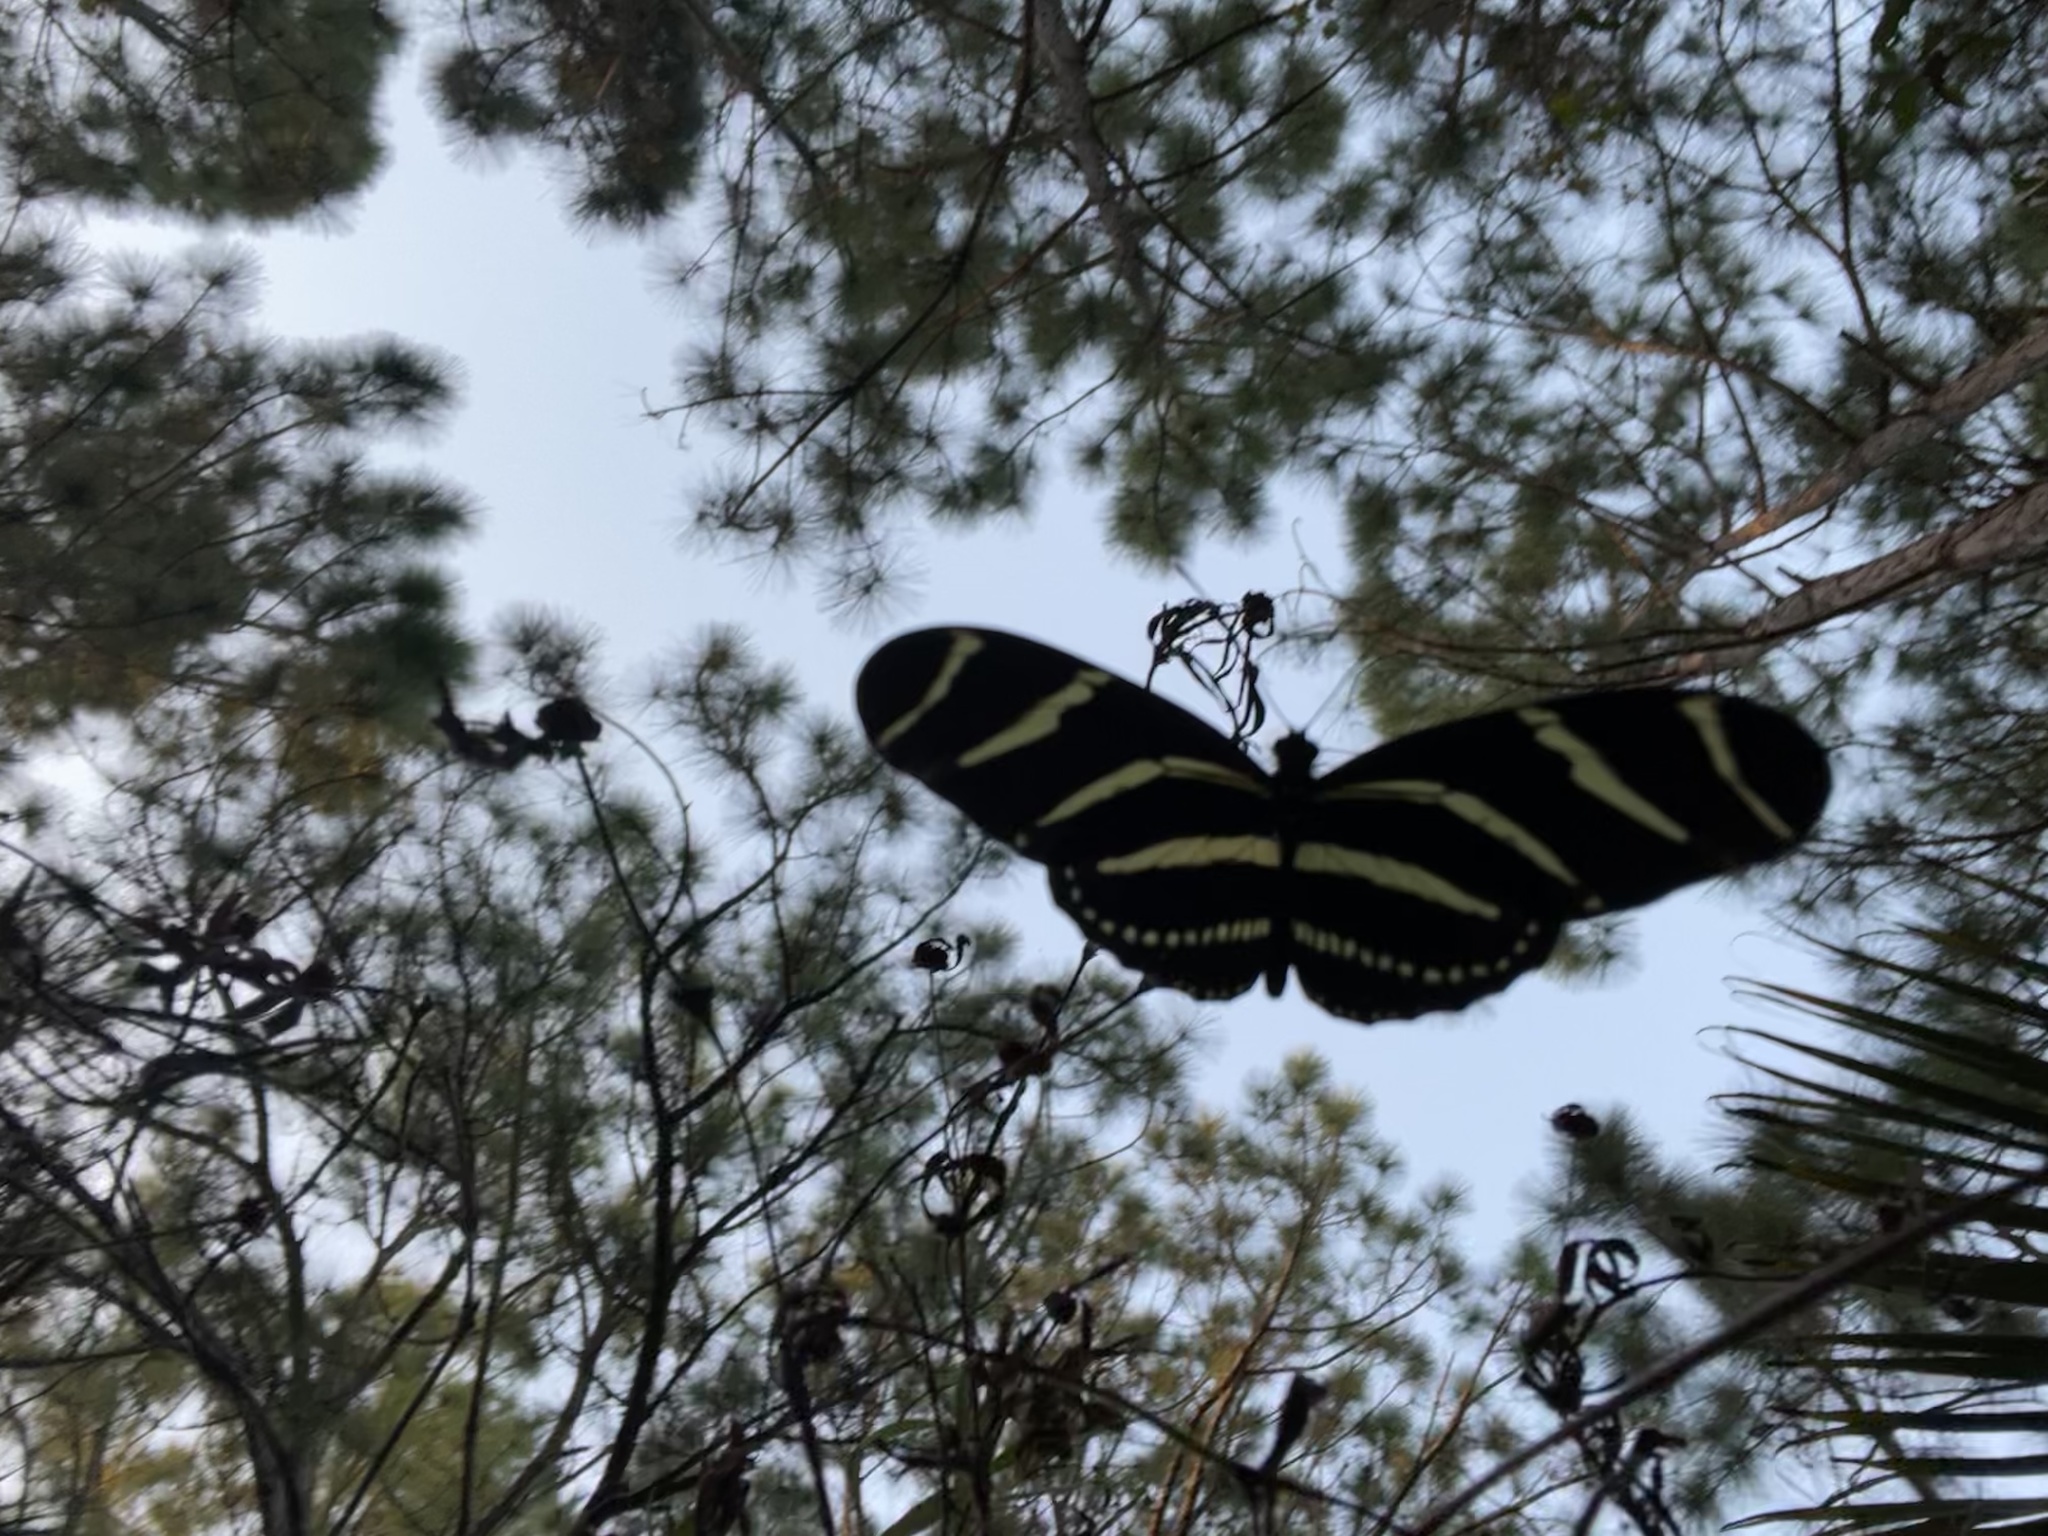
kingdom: Animalia
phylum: Arthropoda
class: Insecta
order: Lepidoptera
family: Nymphalidae
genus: Heliconius
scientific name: Heliconius charithonia
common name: Zebra long wing
